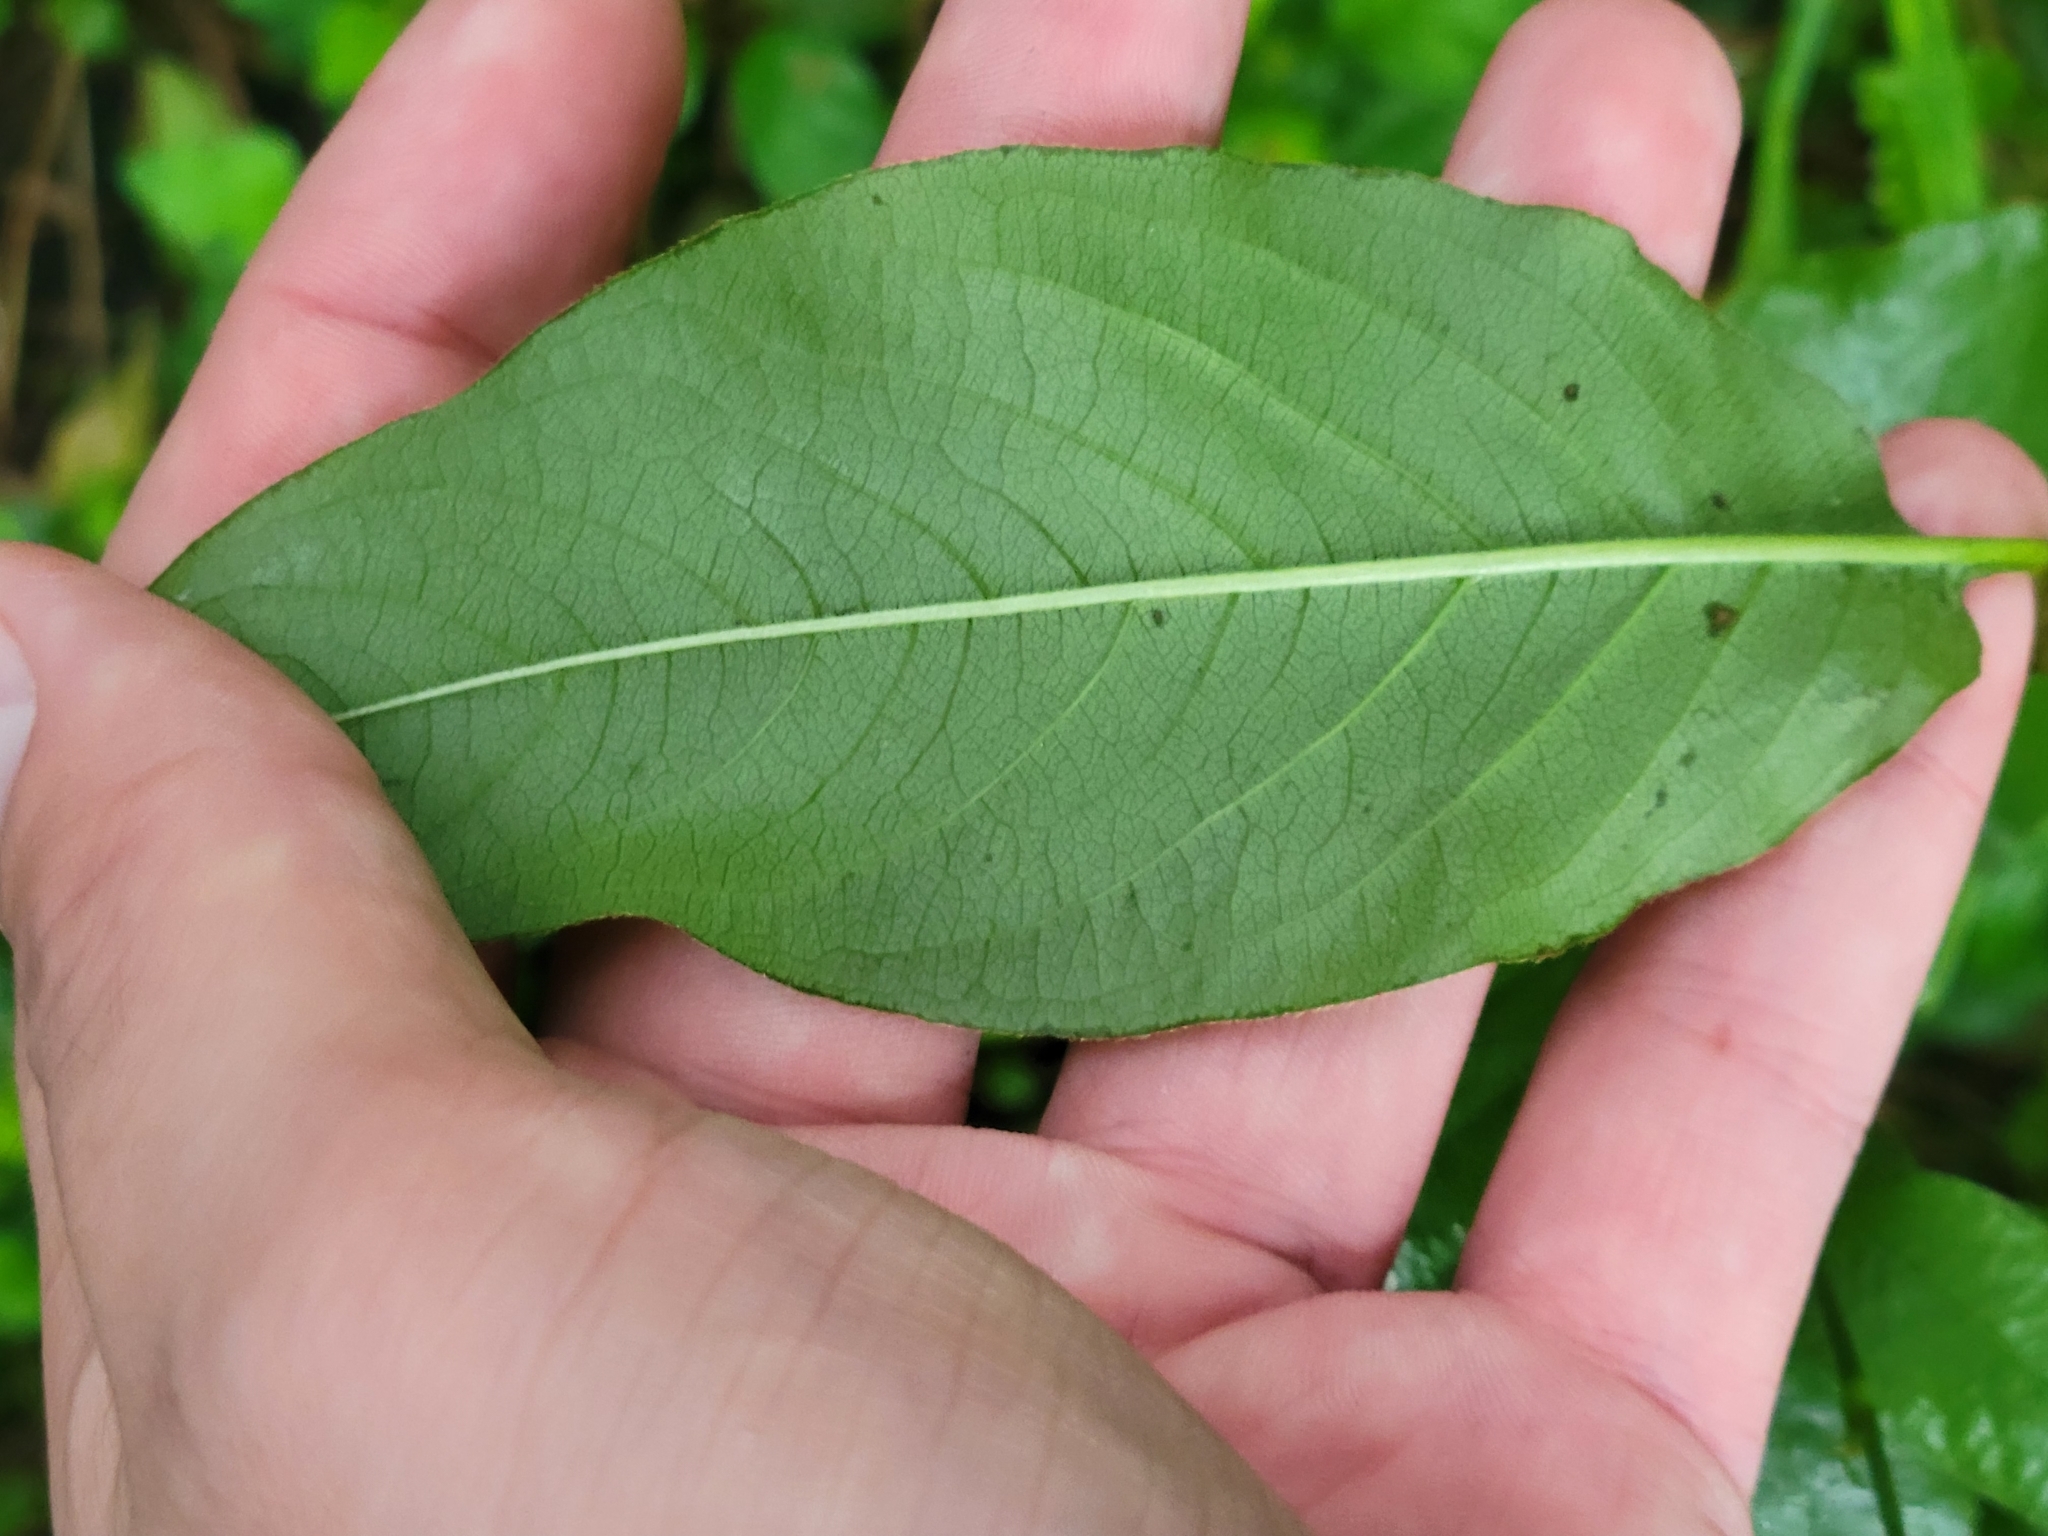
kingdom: Plantae
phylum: Tracheophyta
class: Magnoliopsida
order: Caryophyllales
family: Polygonaceae
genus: Persicaria
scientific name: Persicaria virginiana
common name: Jumpseed
